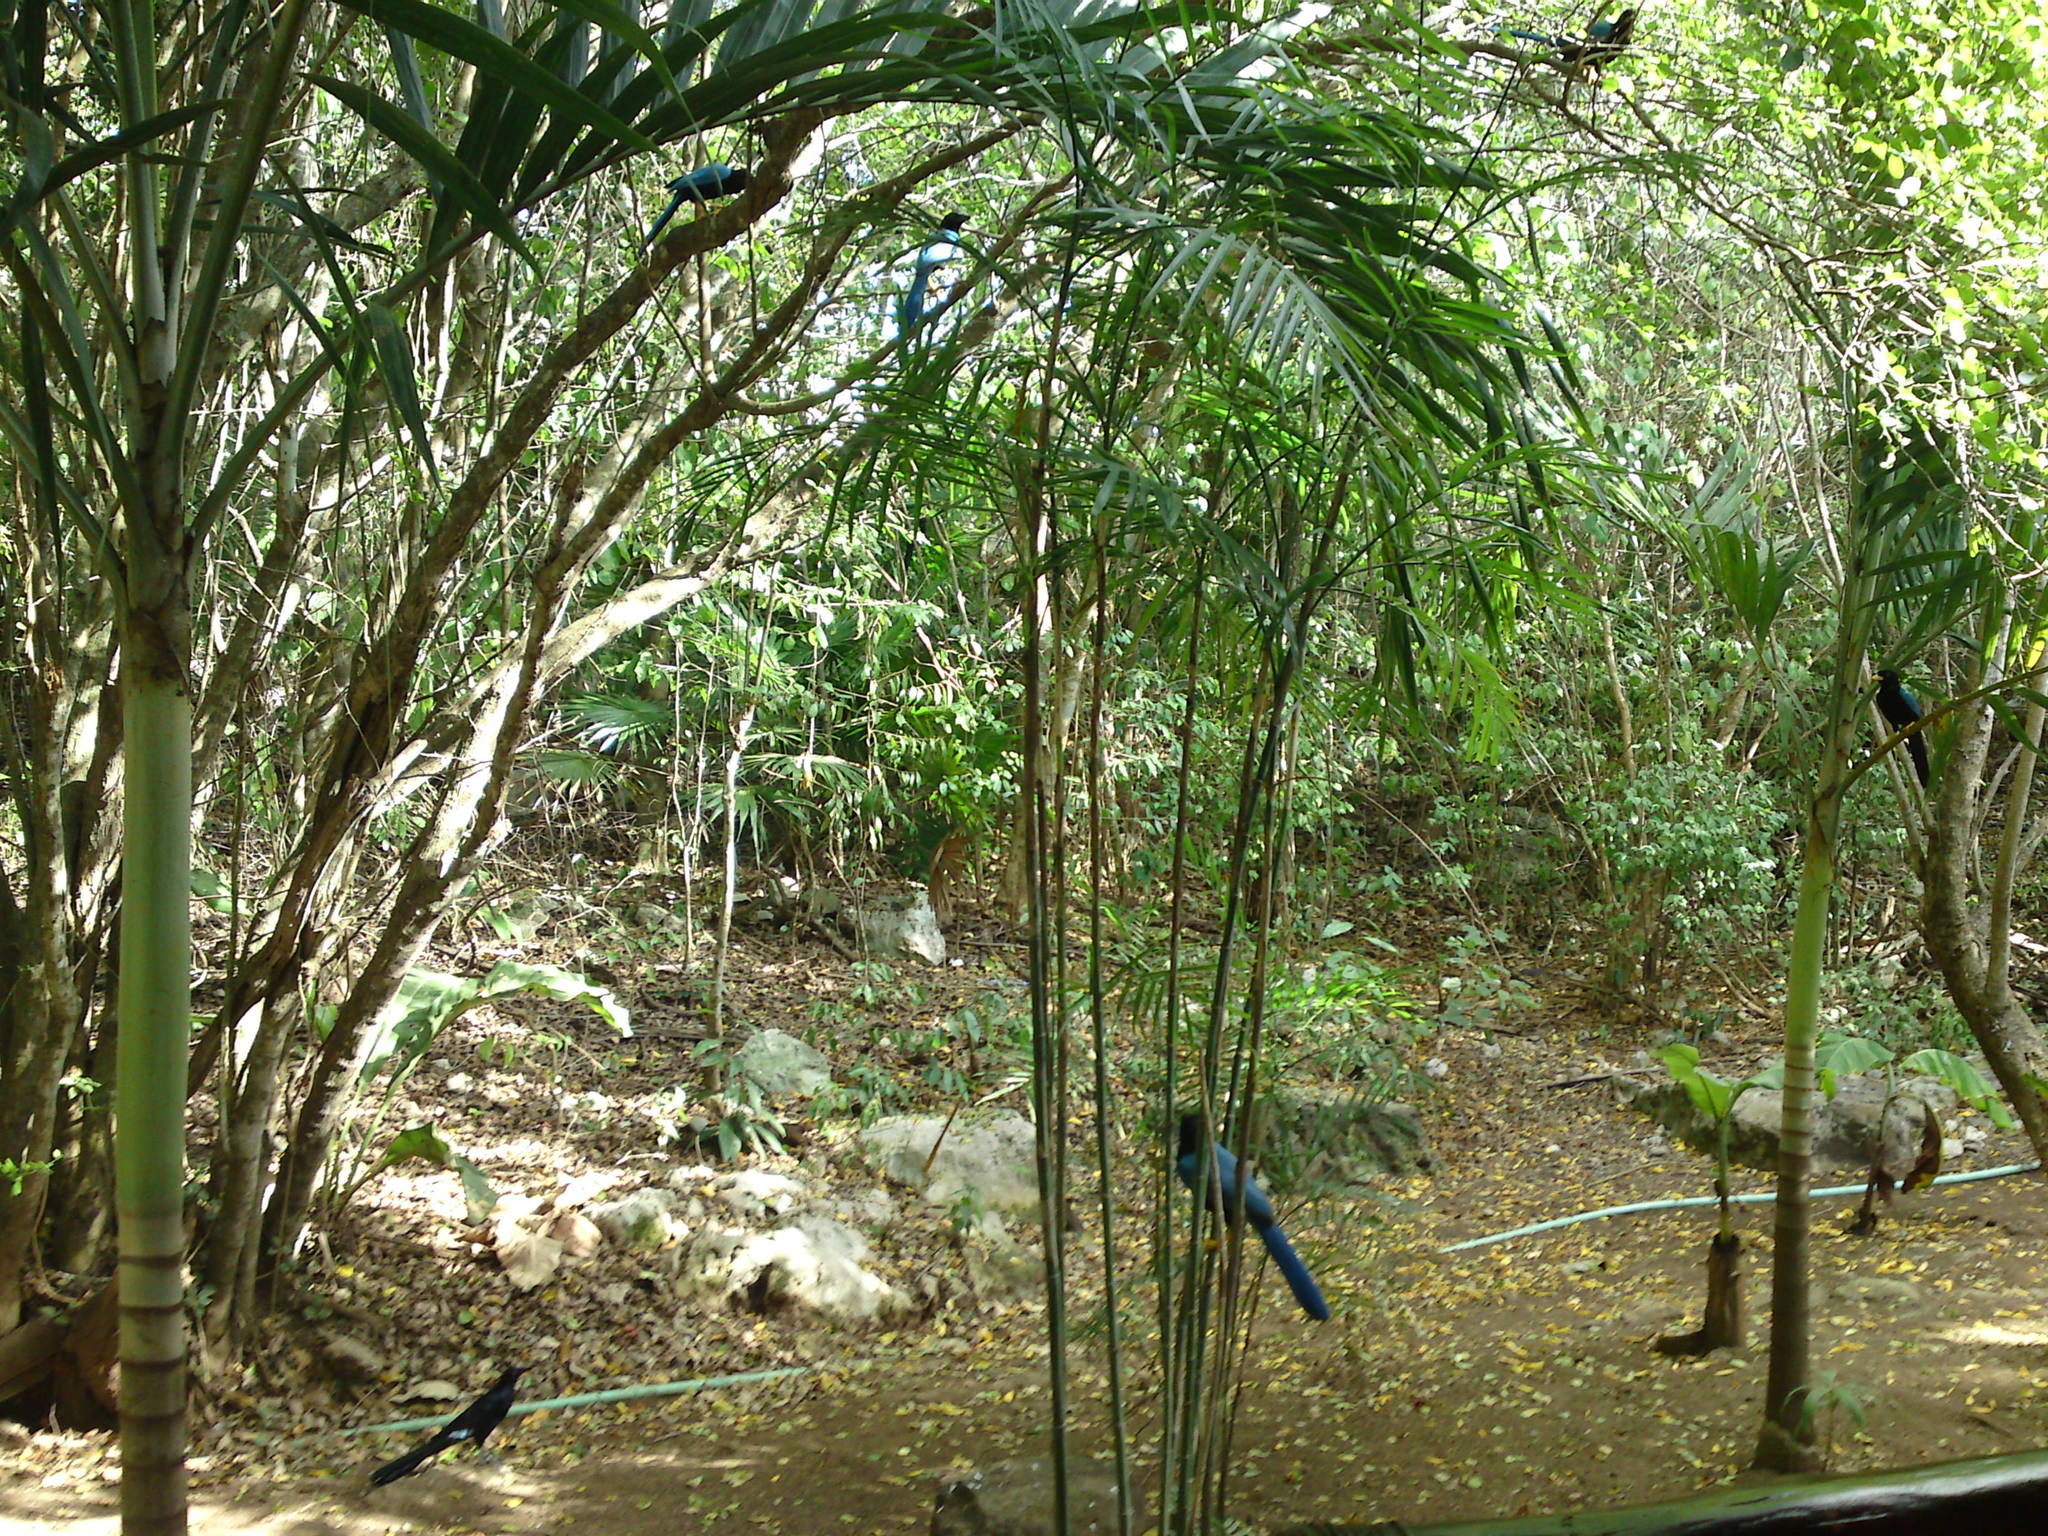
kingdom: Animalia
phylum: Chordata
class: Aves
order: Passeriformes
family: Corvidae
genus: Cyanocorax
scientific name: Cyanocorax yucatanicus
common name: Yucatan jay
